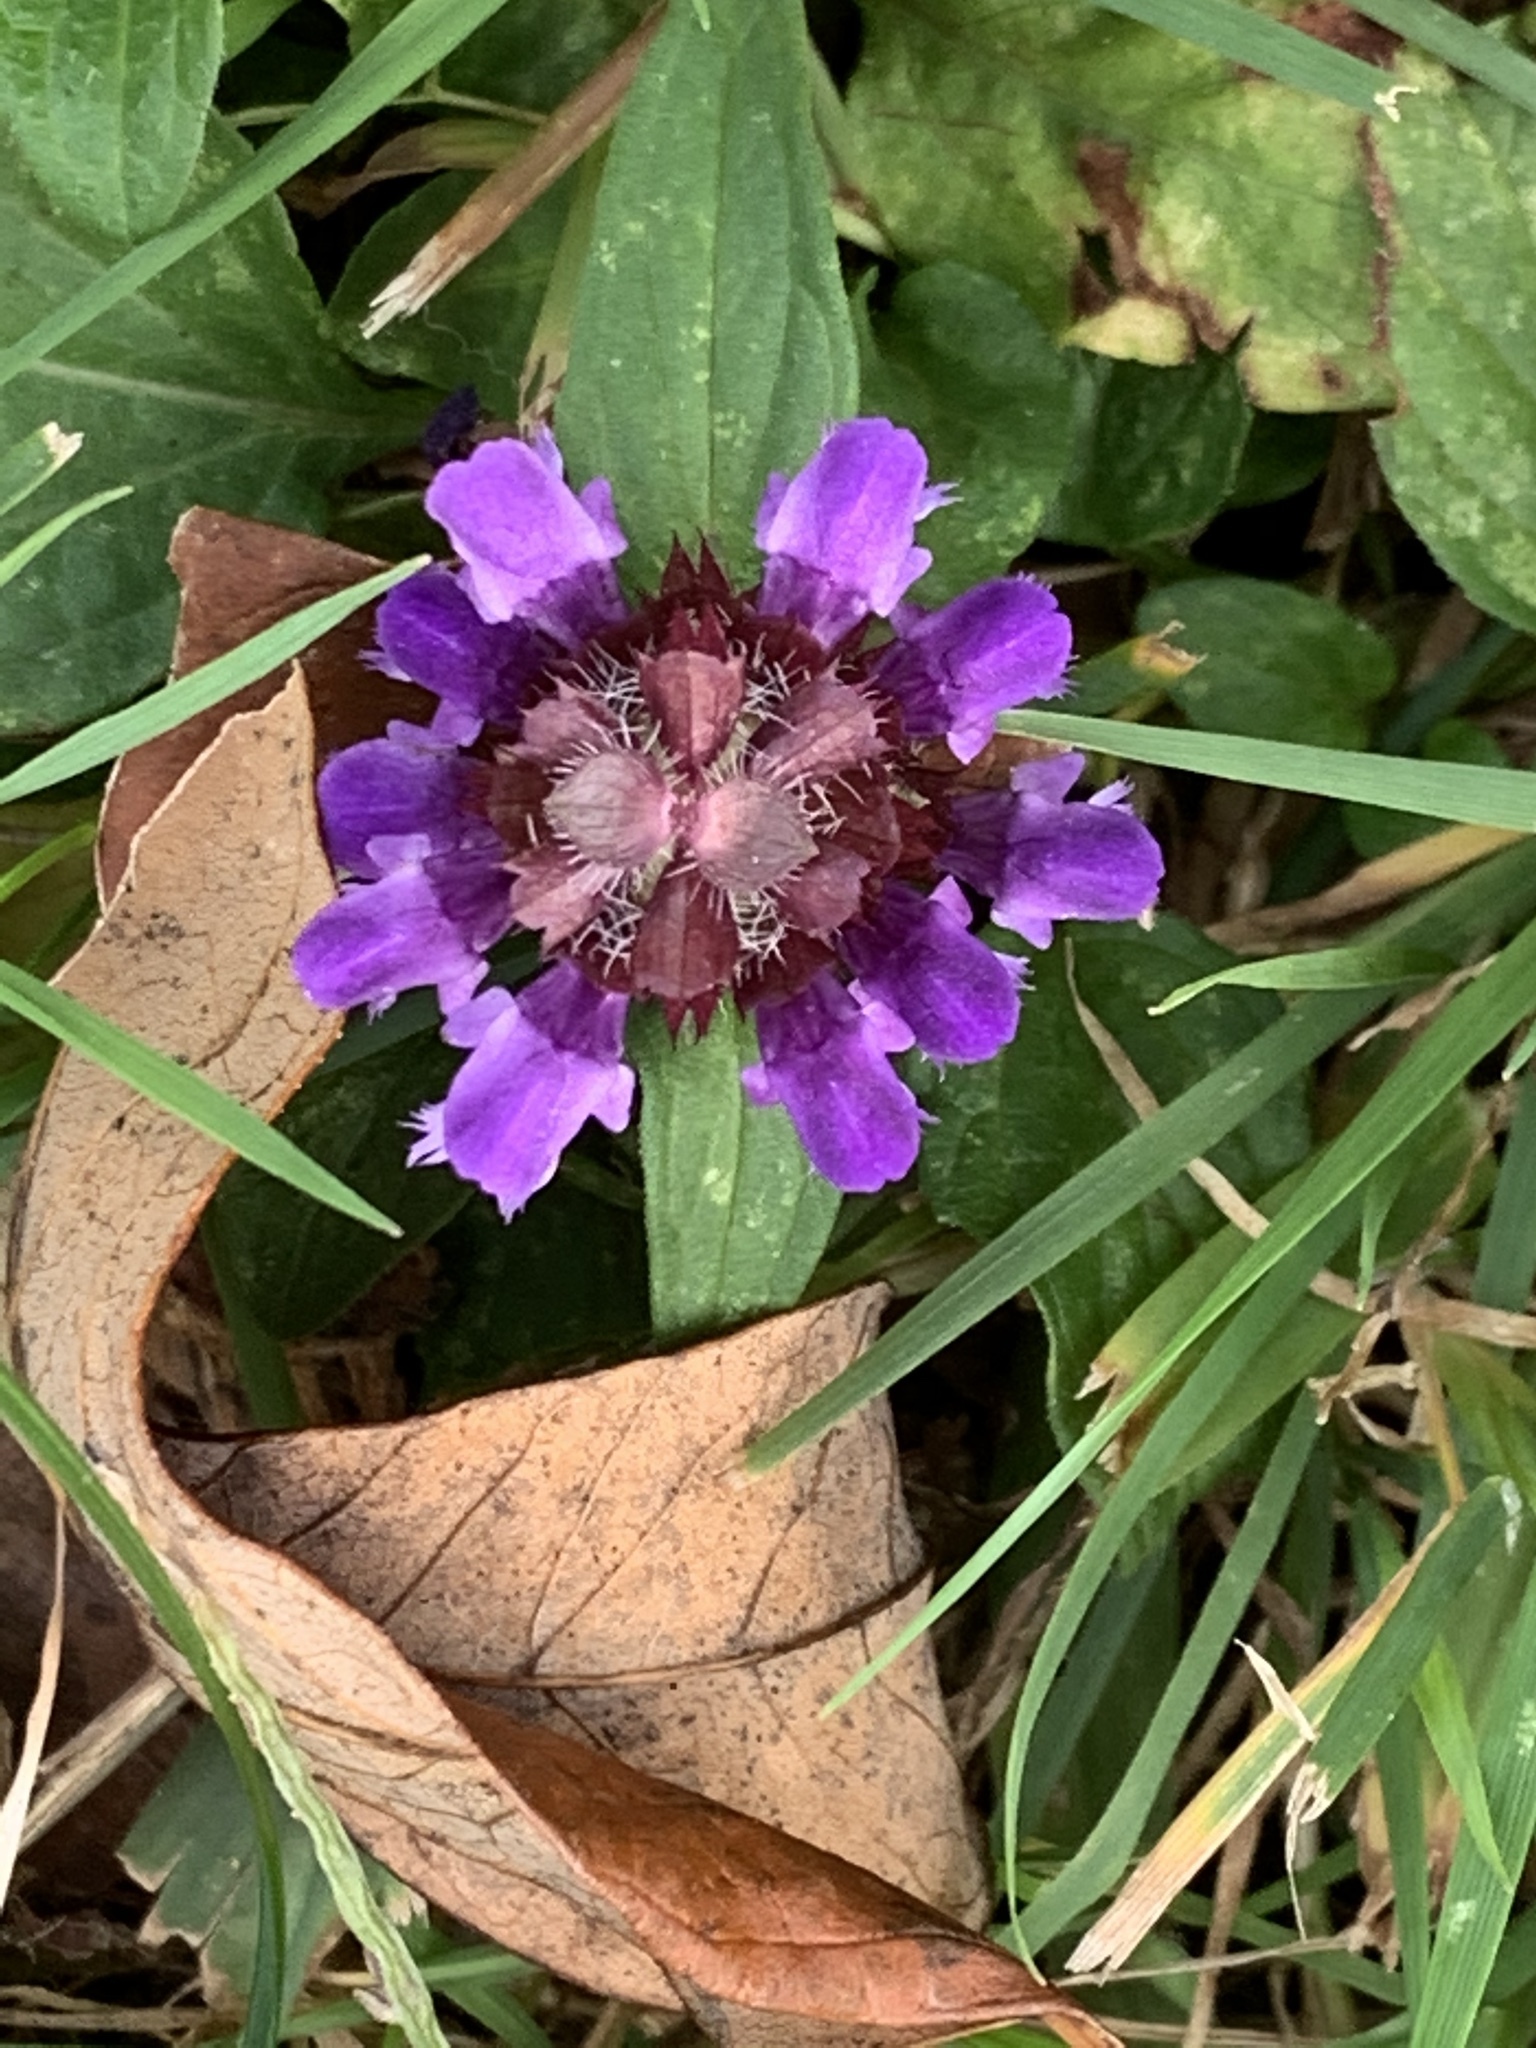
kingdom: Plantae
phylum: Tracheophyta
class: Magnoliopsida
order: Lamiales
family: Lamiaceae
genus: Prunella
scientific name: Prunella vulgaris
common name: Heal-all
